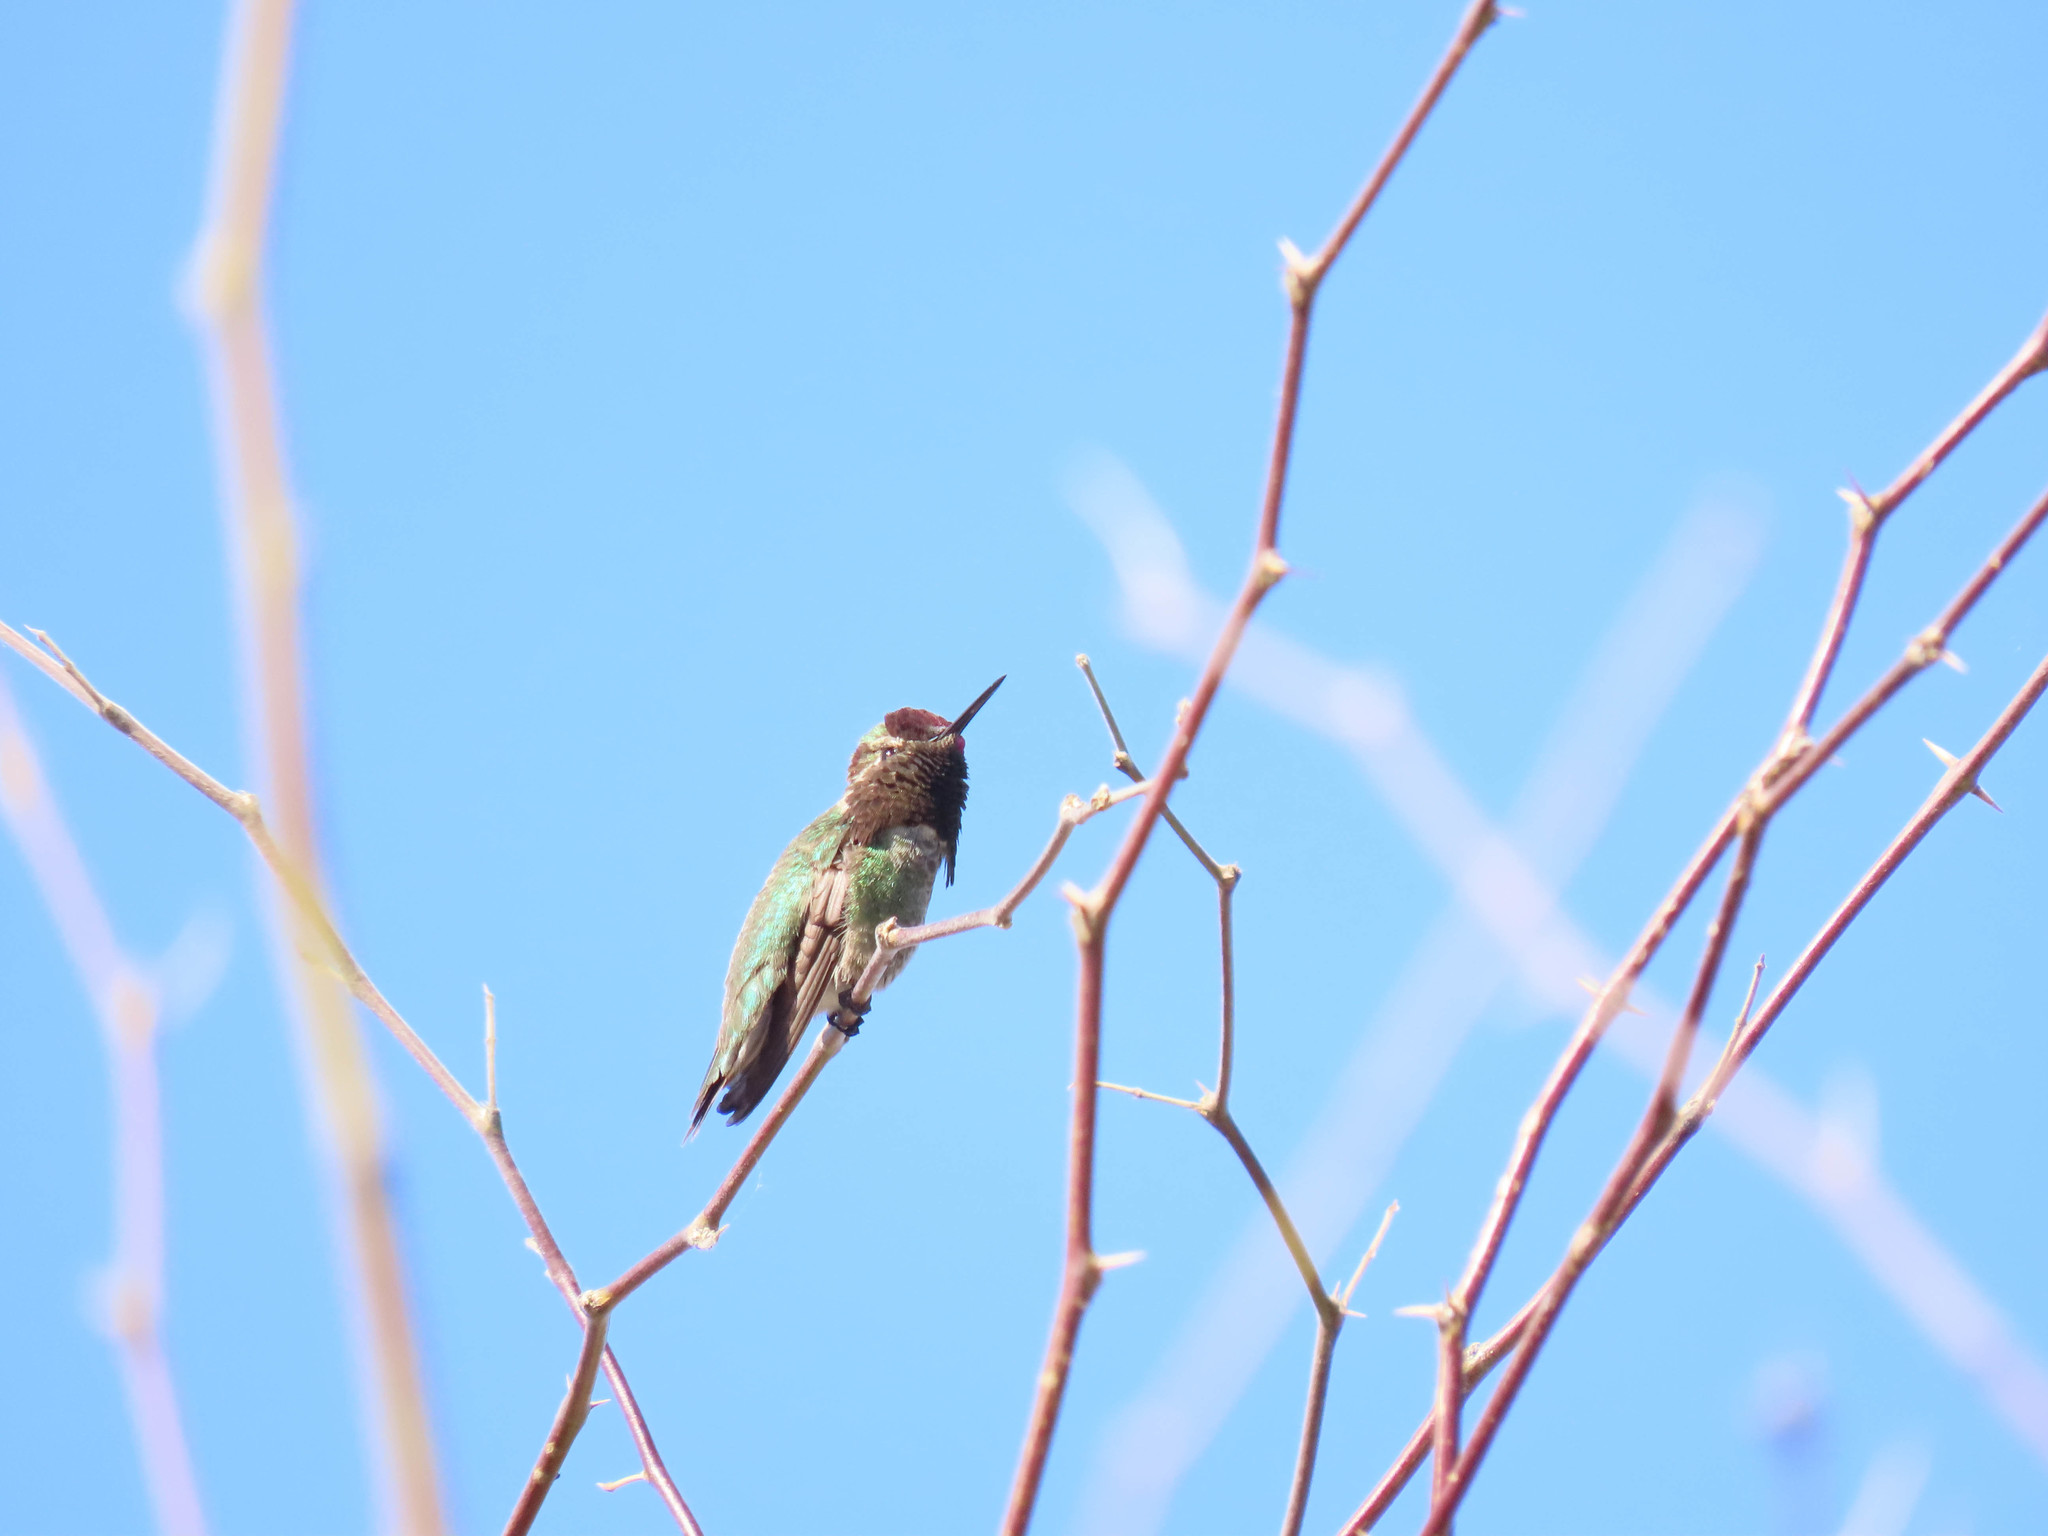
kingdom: Animalia
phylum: Chordata
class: Aves
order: Apodiformes
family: Trochilidae
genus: Calypte
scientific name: Calypte anna
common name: Anna's hummingbird
